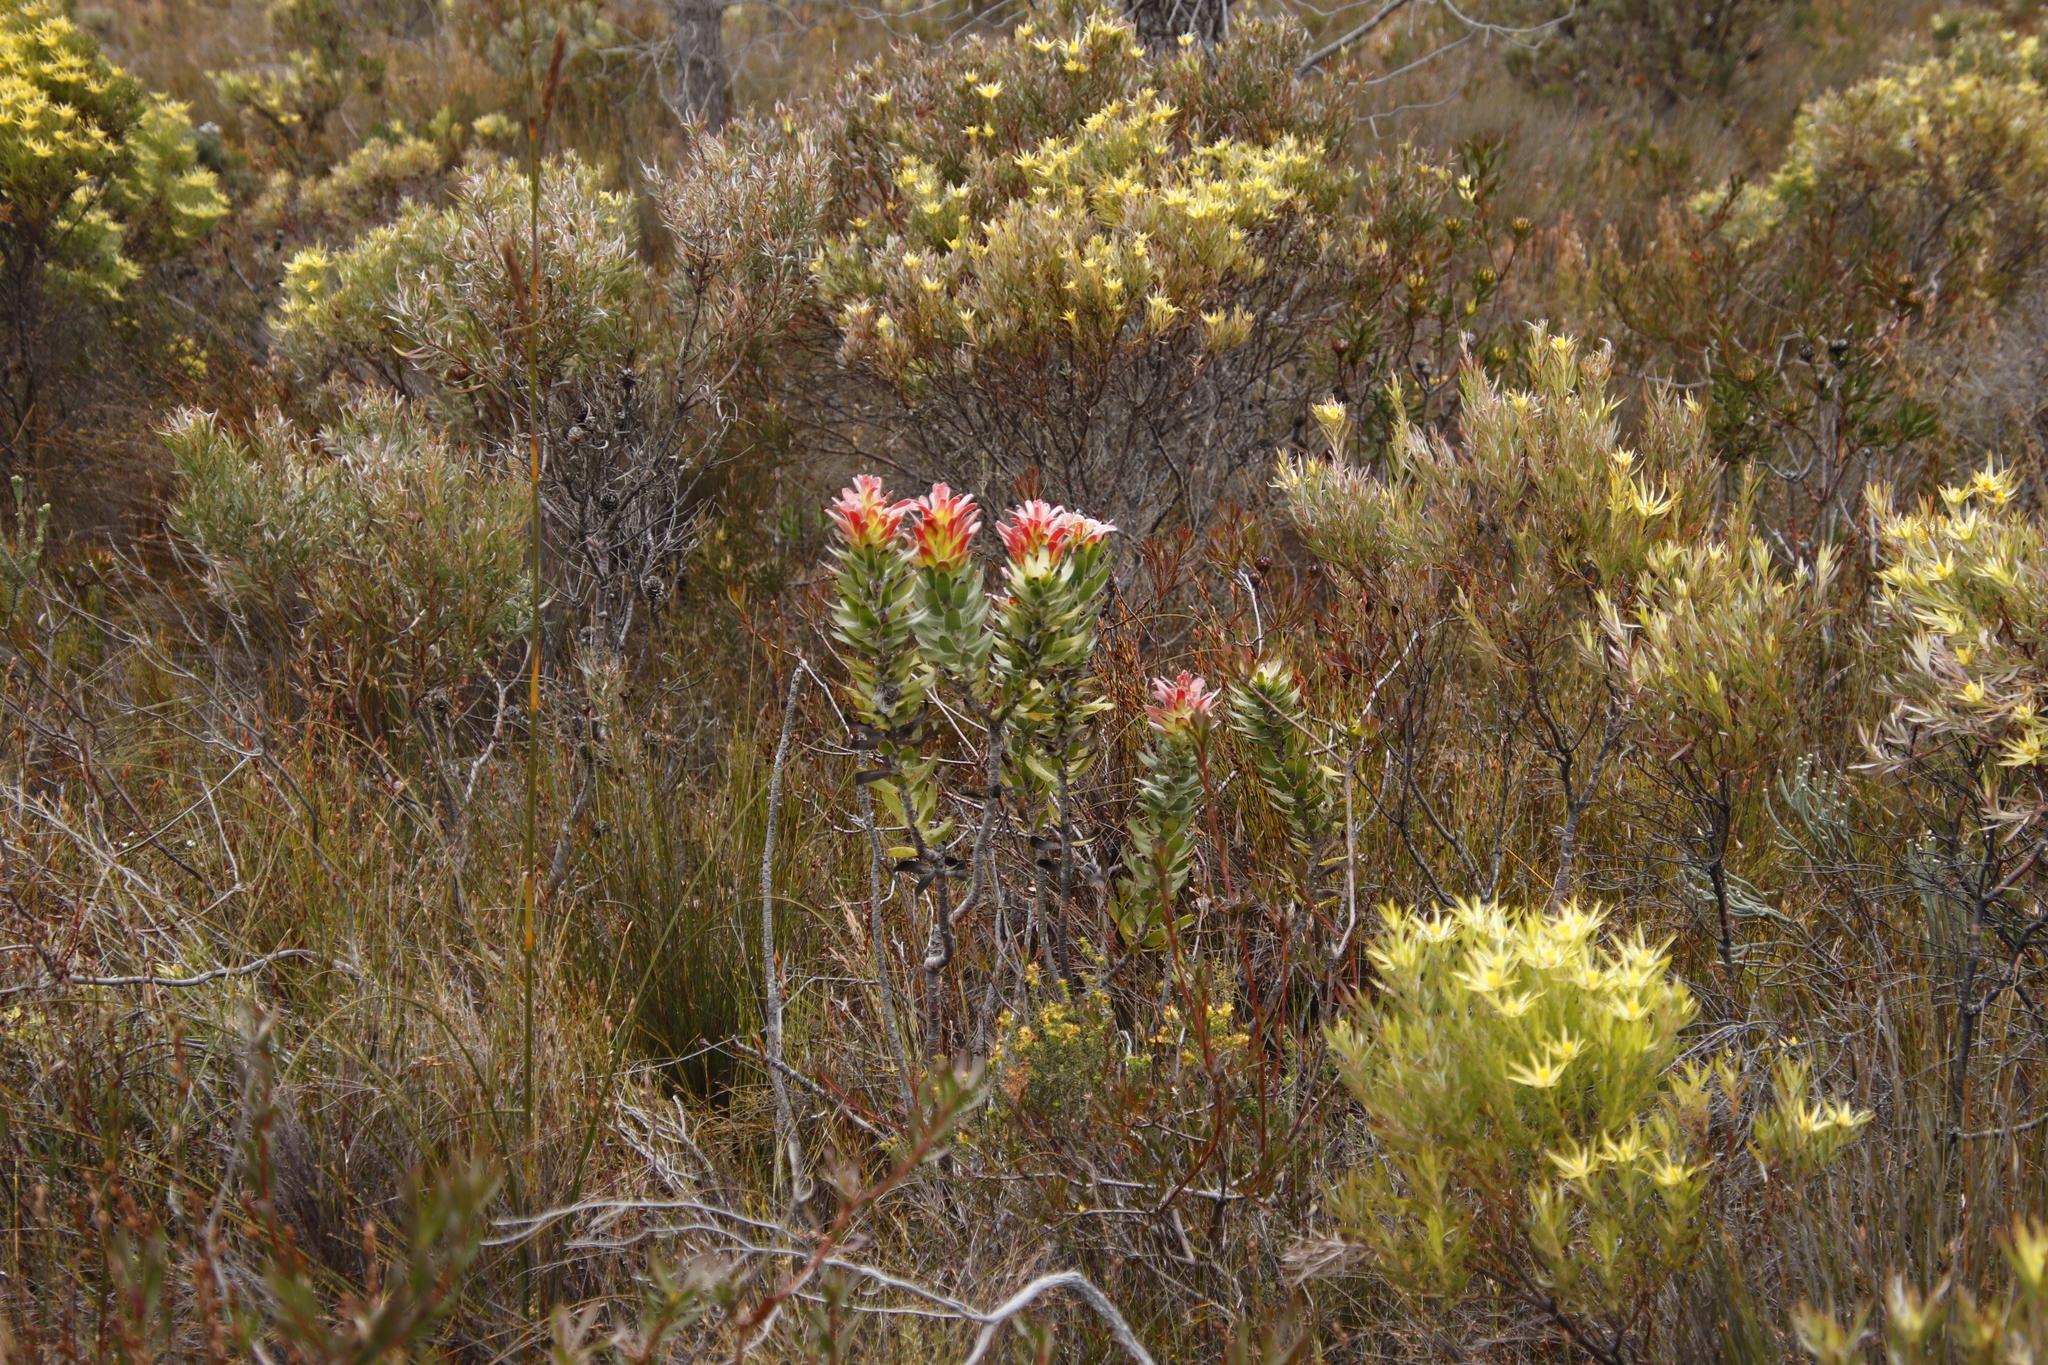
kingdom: Plantae
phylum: Tracheophyta
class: Magnoliopsida
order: Proteales
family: Proteaceae
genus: Mimetes
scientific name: Mimetes cucullatus
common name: Common pagoda
